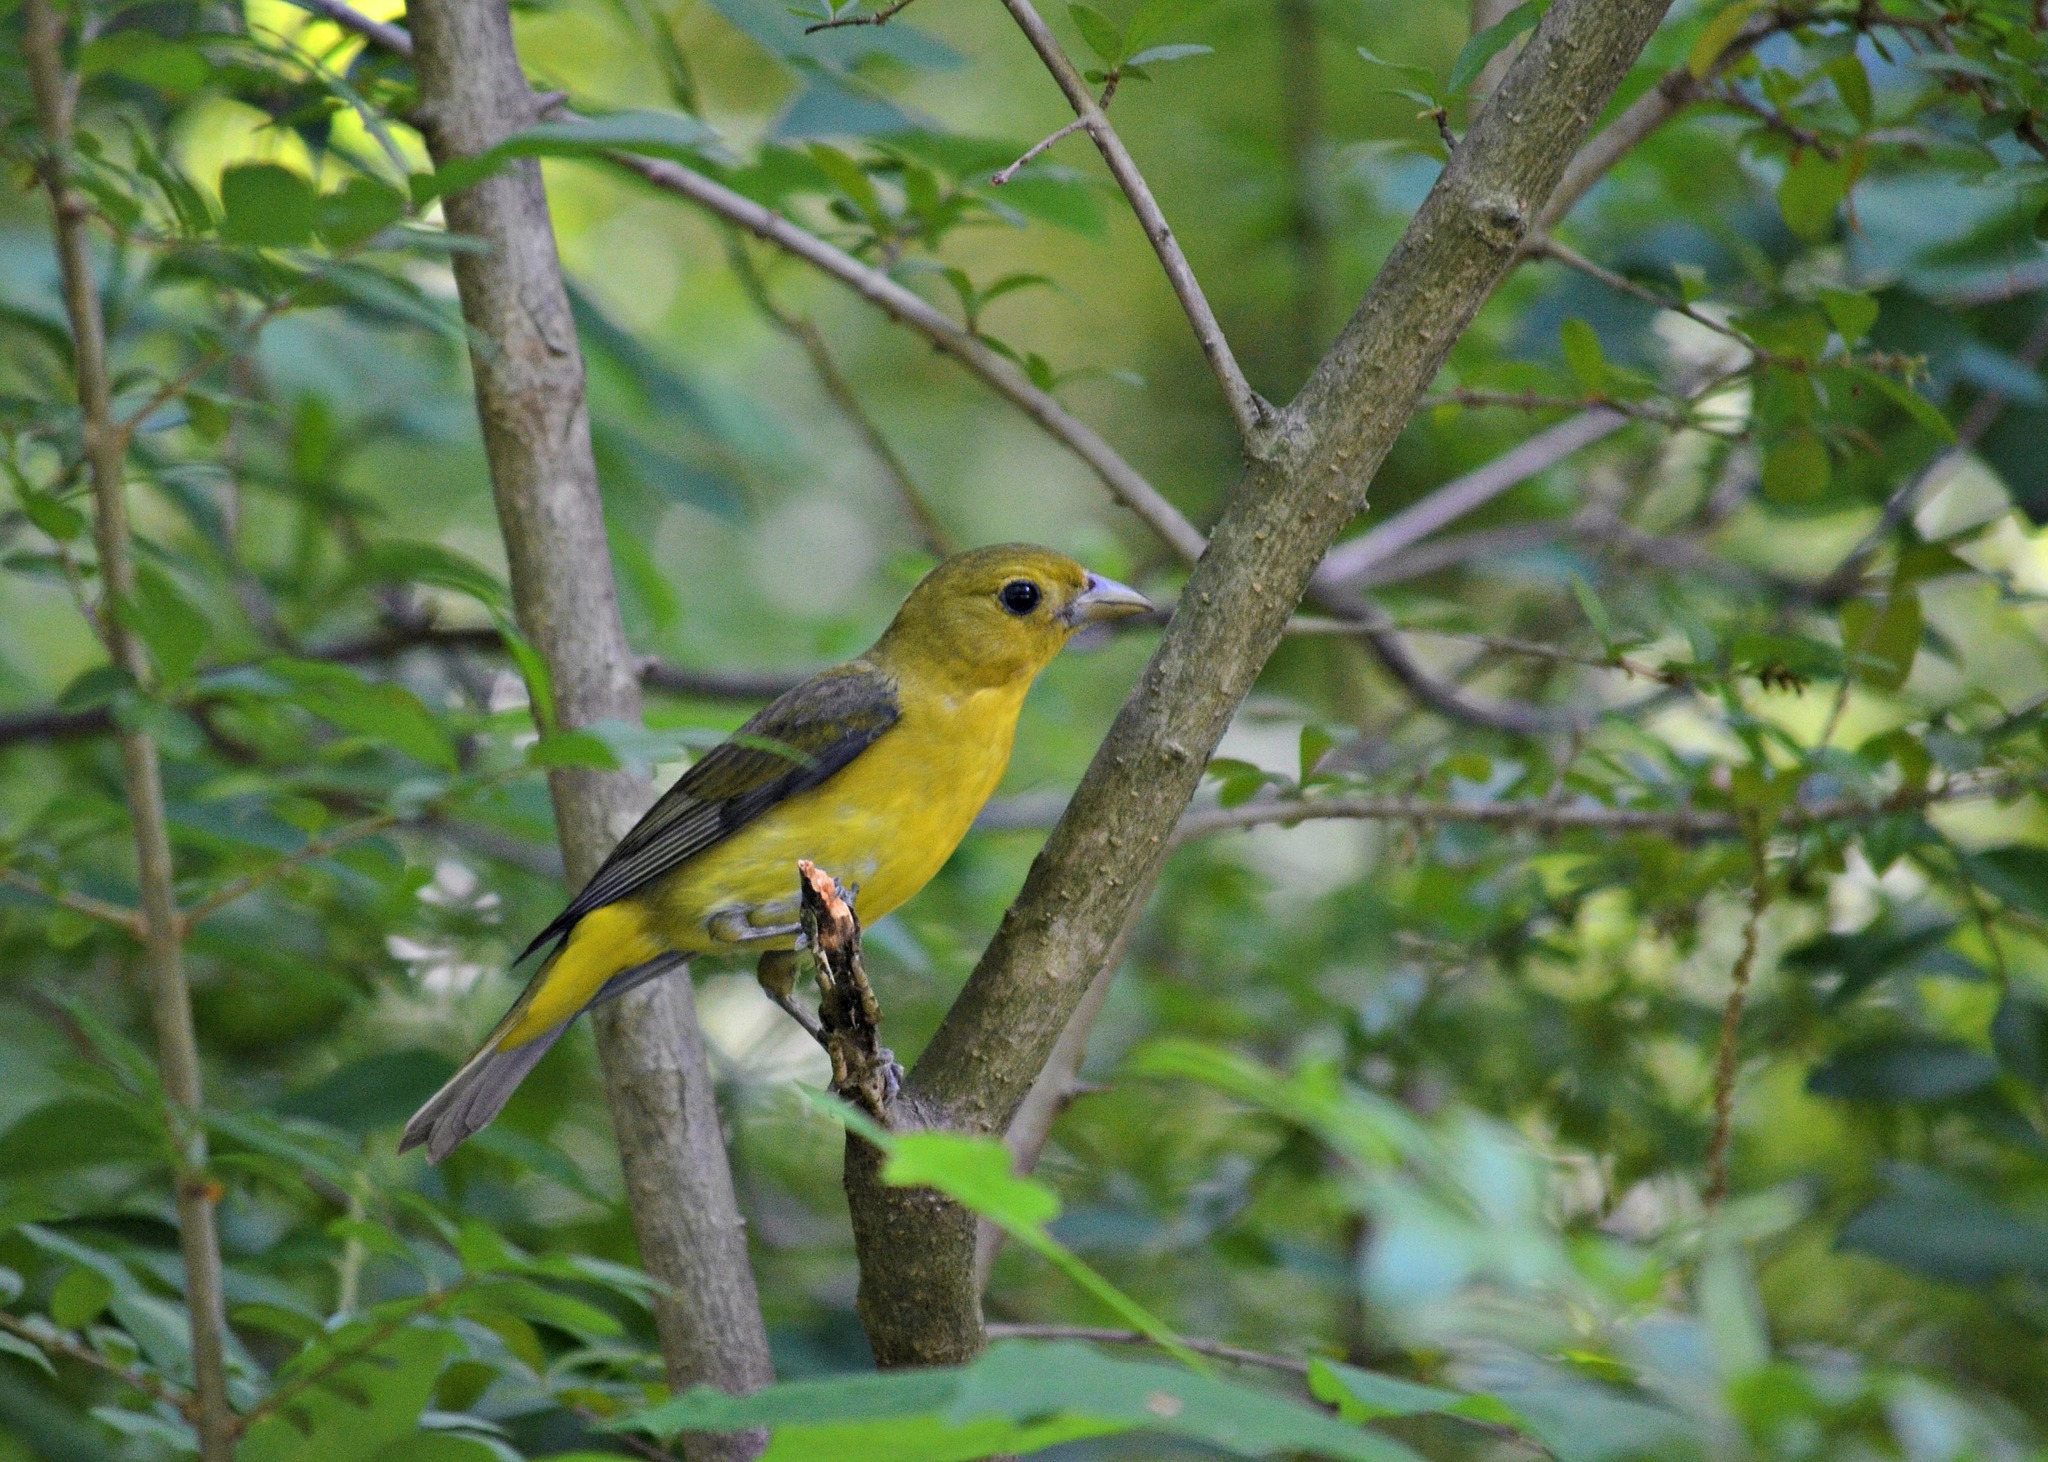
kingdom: Animalia
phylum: Chordata
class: Aves
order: Passeriformes
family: Cardinalidae
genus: Piranga
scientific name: Piranga olivacea
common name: Scarlet tanager
